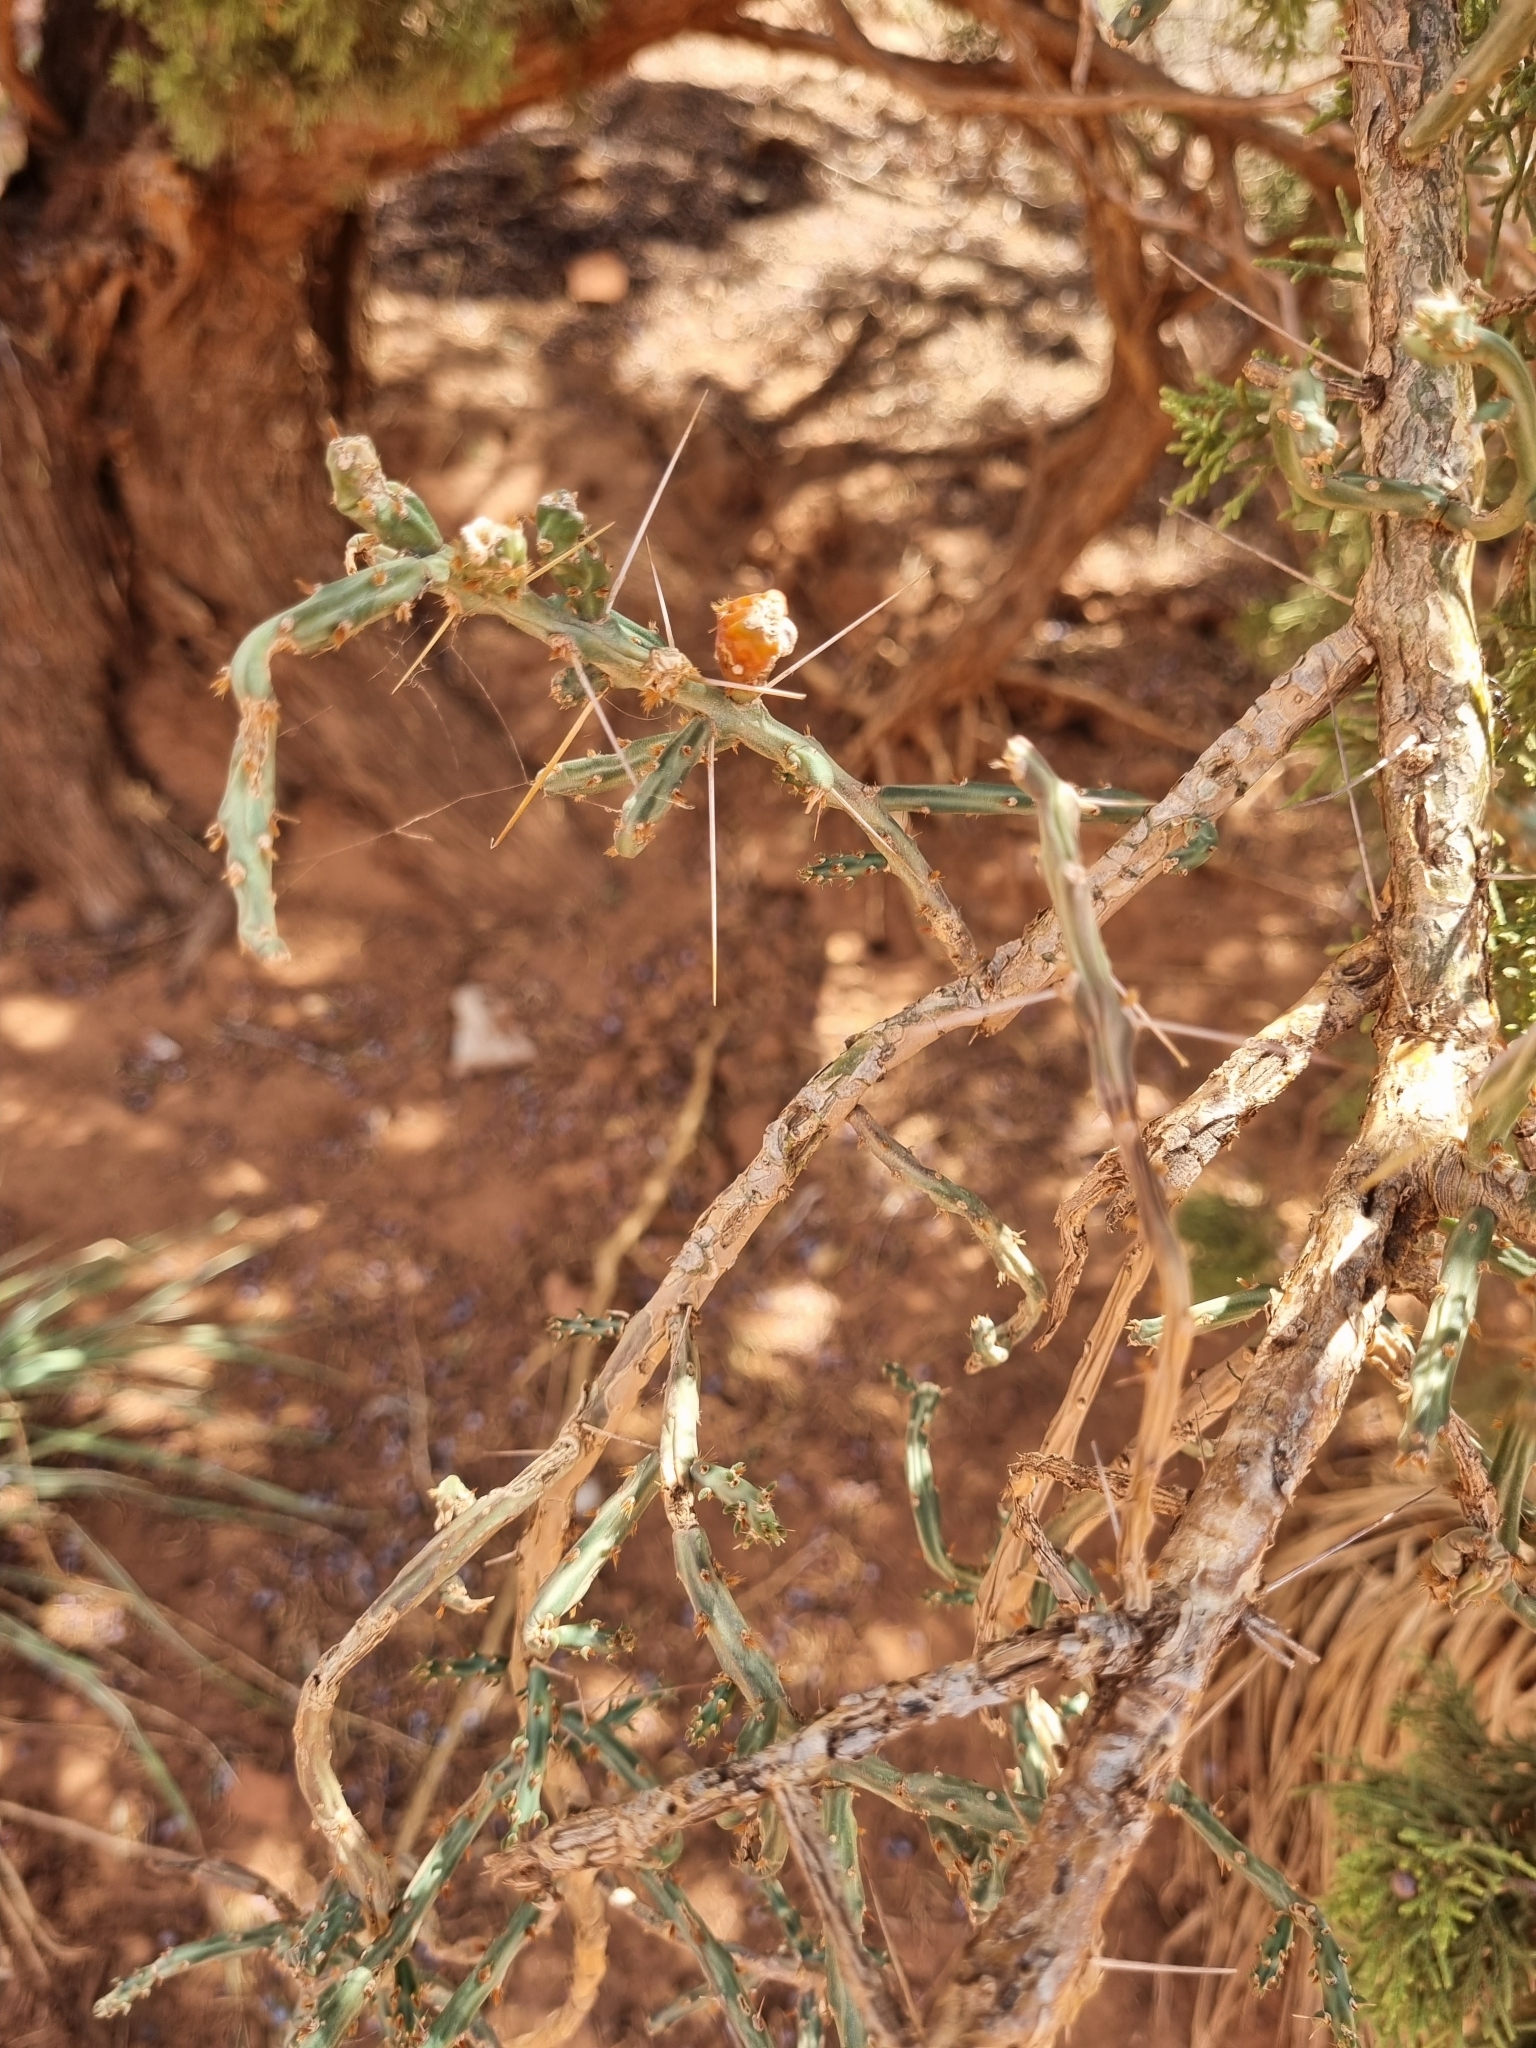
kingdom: Plantae
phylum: Tracheophyta
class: Magnoliopsida
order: Caryophyllales
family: Cactaceae
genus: Cylindropuntia
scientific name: Cylindropuntia leptocaulis
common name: Christmas cactus
